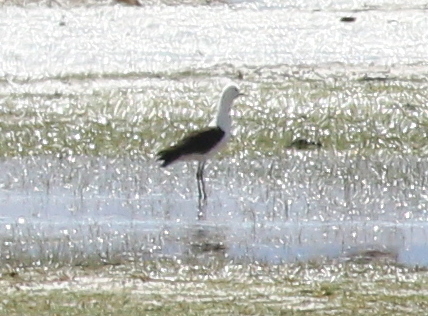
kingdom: Animalia
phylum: Chordata
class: Aves
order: Charadriiformes
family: Recurvirostridae
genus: Recurvirostra
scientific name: Recurvirostra andina
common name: Andean avocet
